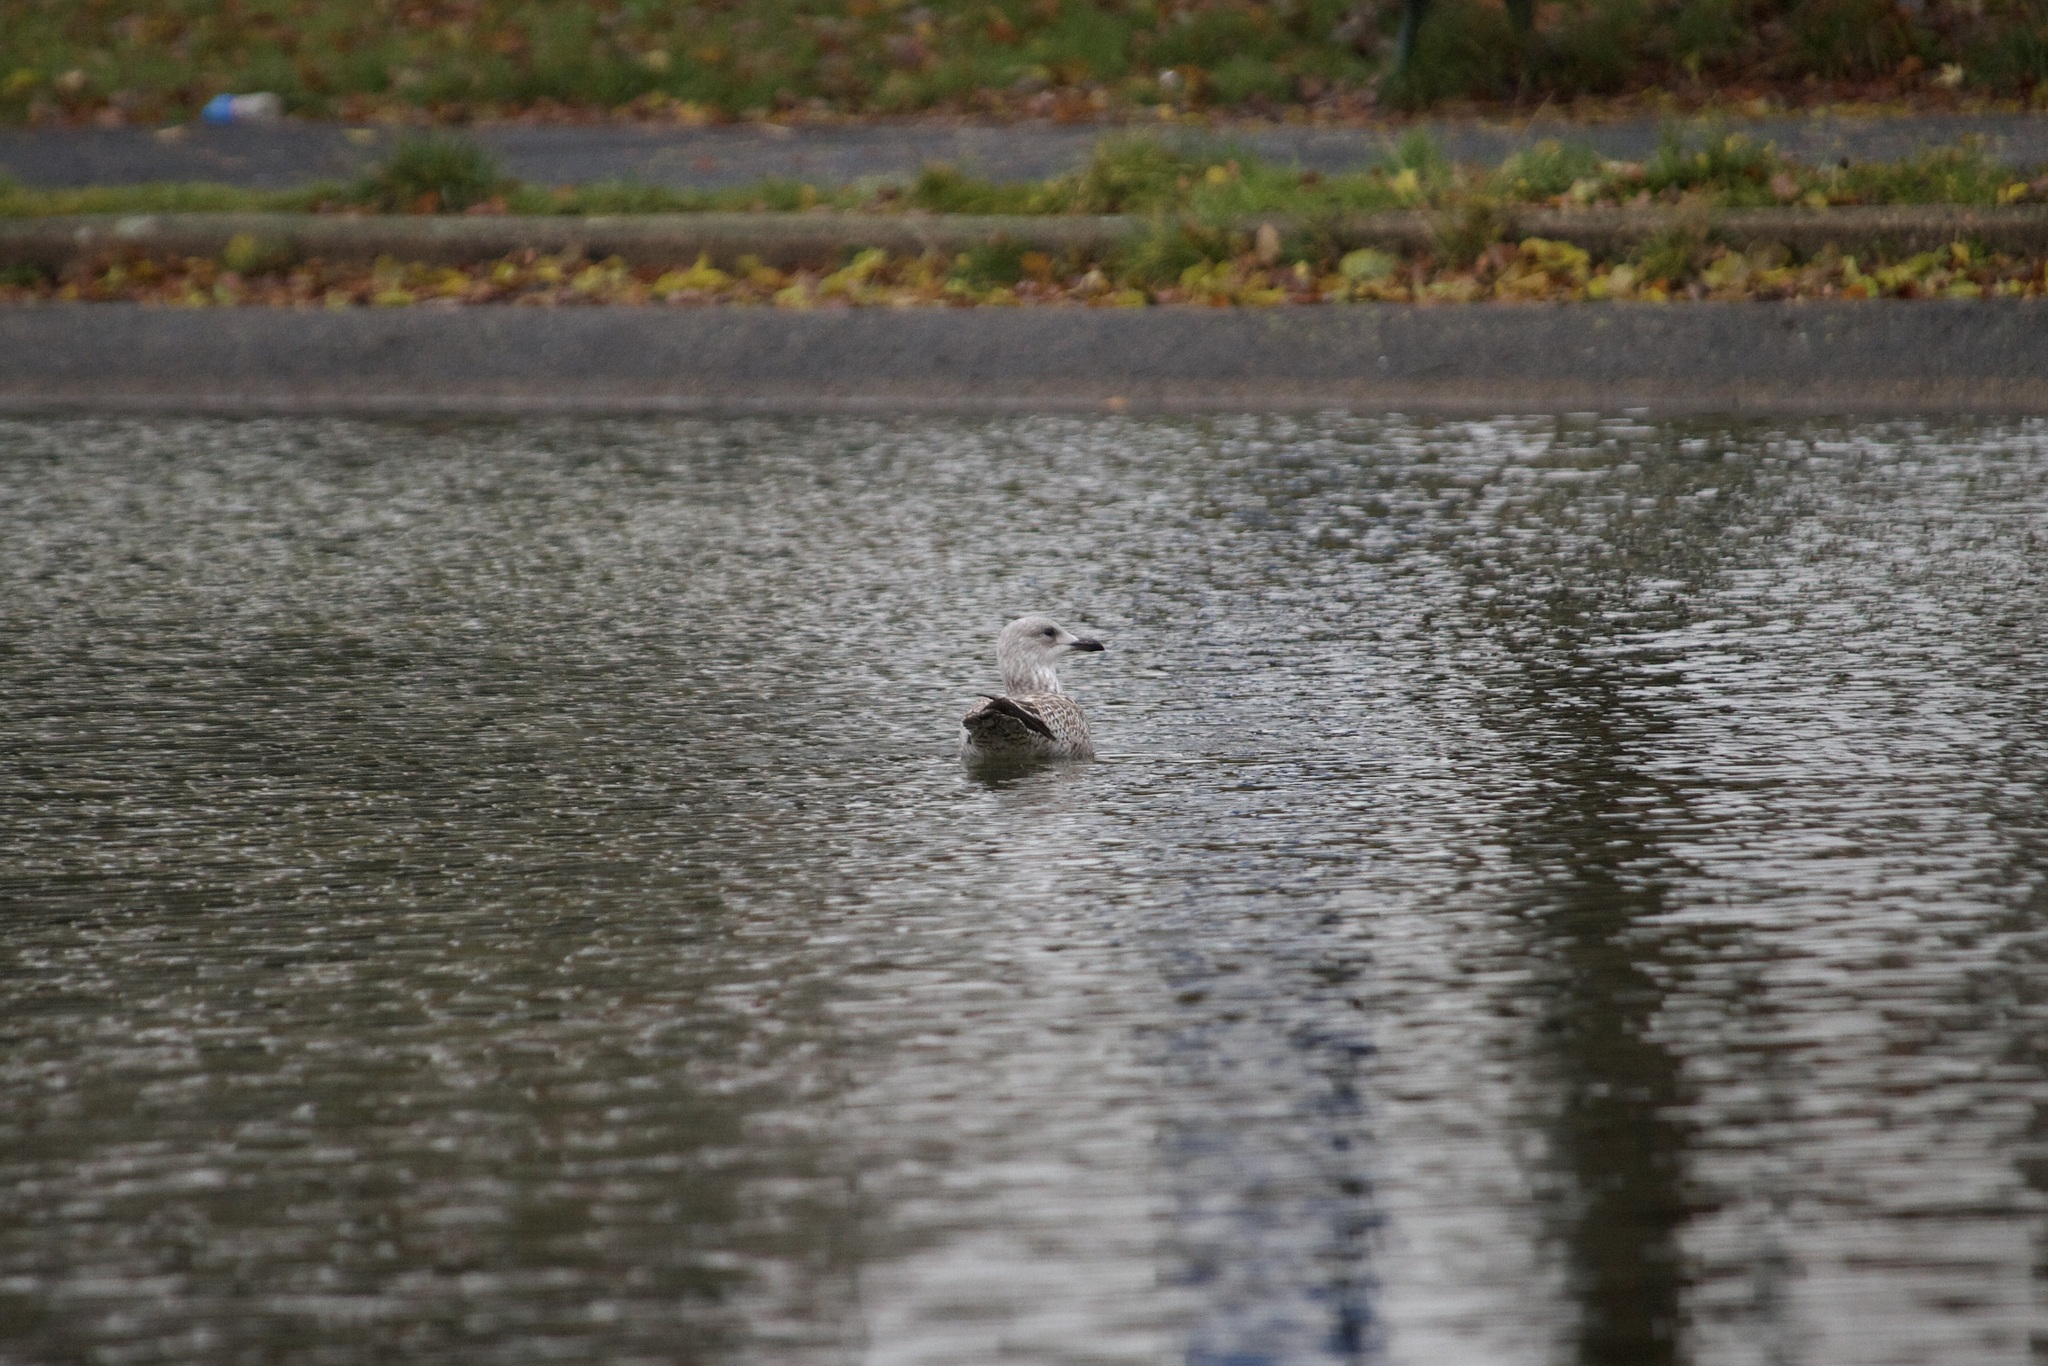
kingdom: Animalia
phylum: Chordata
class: Aves
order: Charadriiformes
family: Laridae
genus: Larus
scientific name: Larus argentatus
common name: Herring gull
